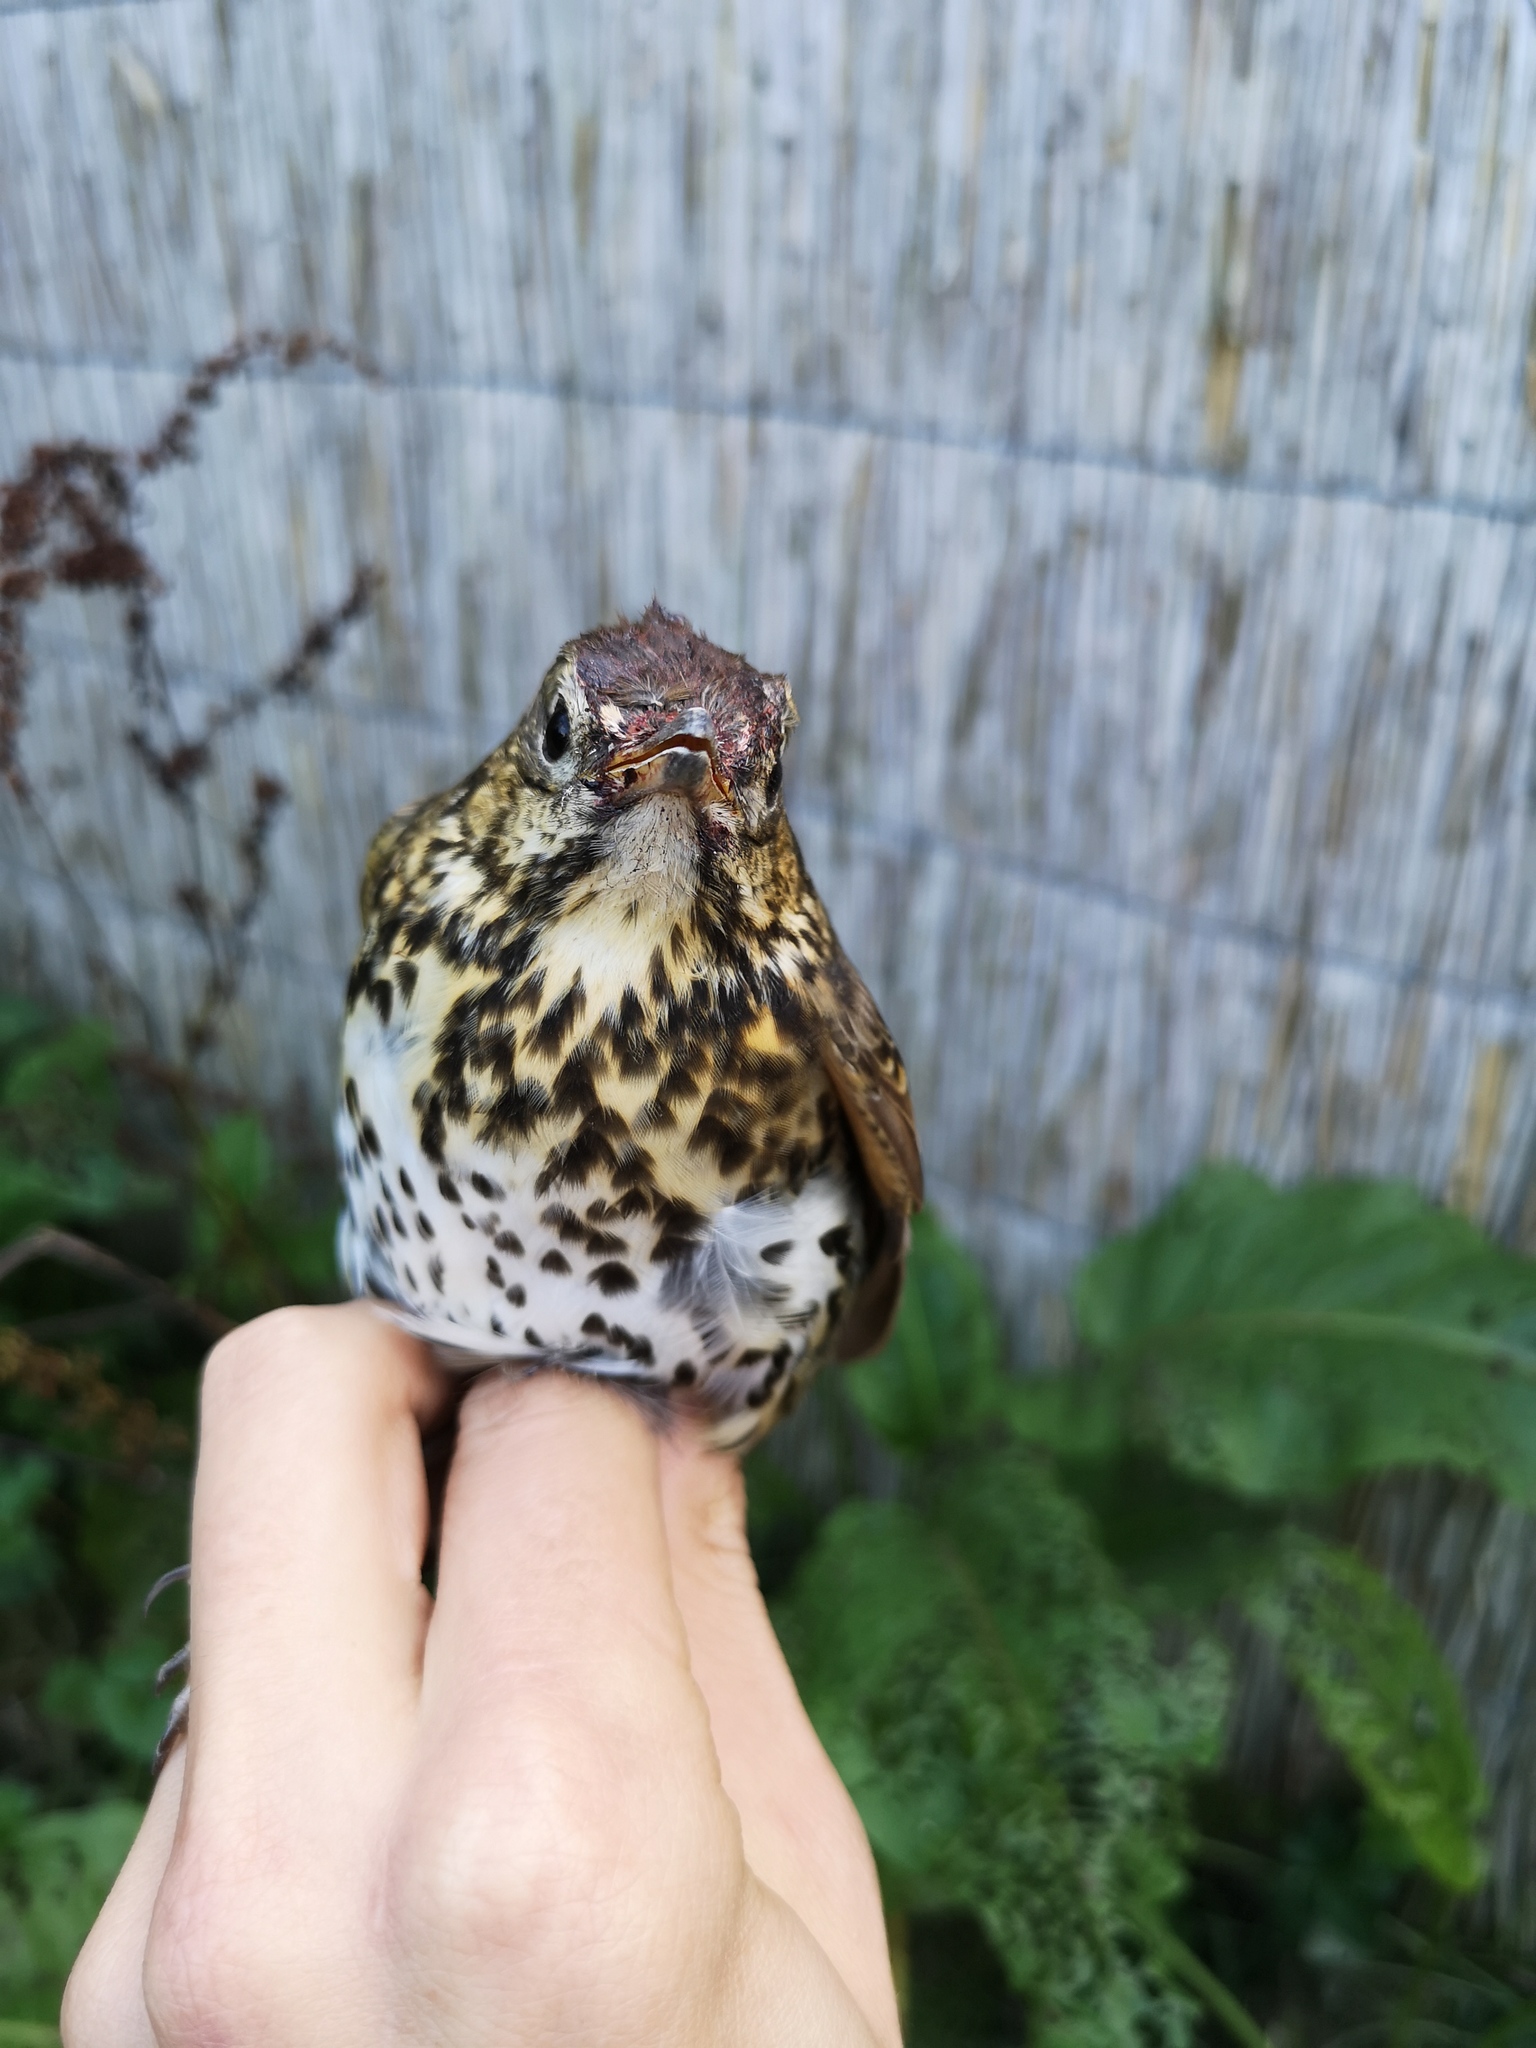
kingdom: Animalia
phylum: Chordata
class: Aves
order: Passeriformes
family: Turdidae
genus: Turdus
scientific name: Turdus philomelos
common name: Song thrush
